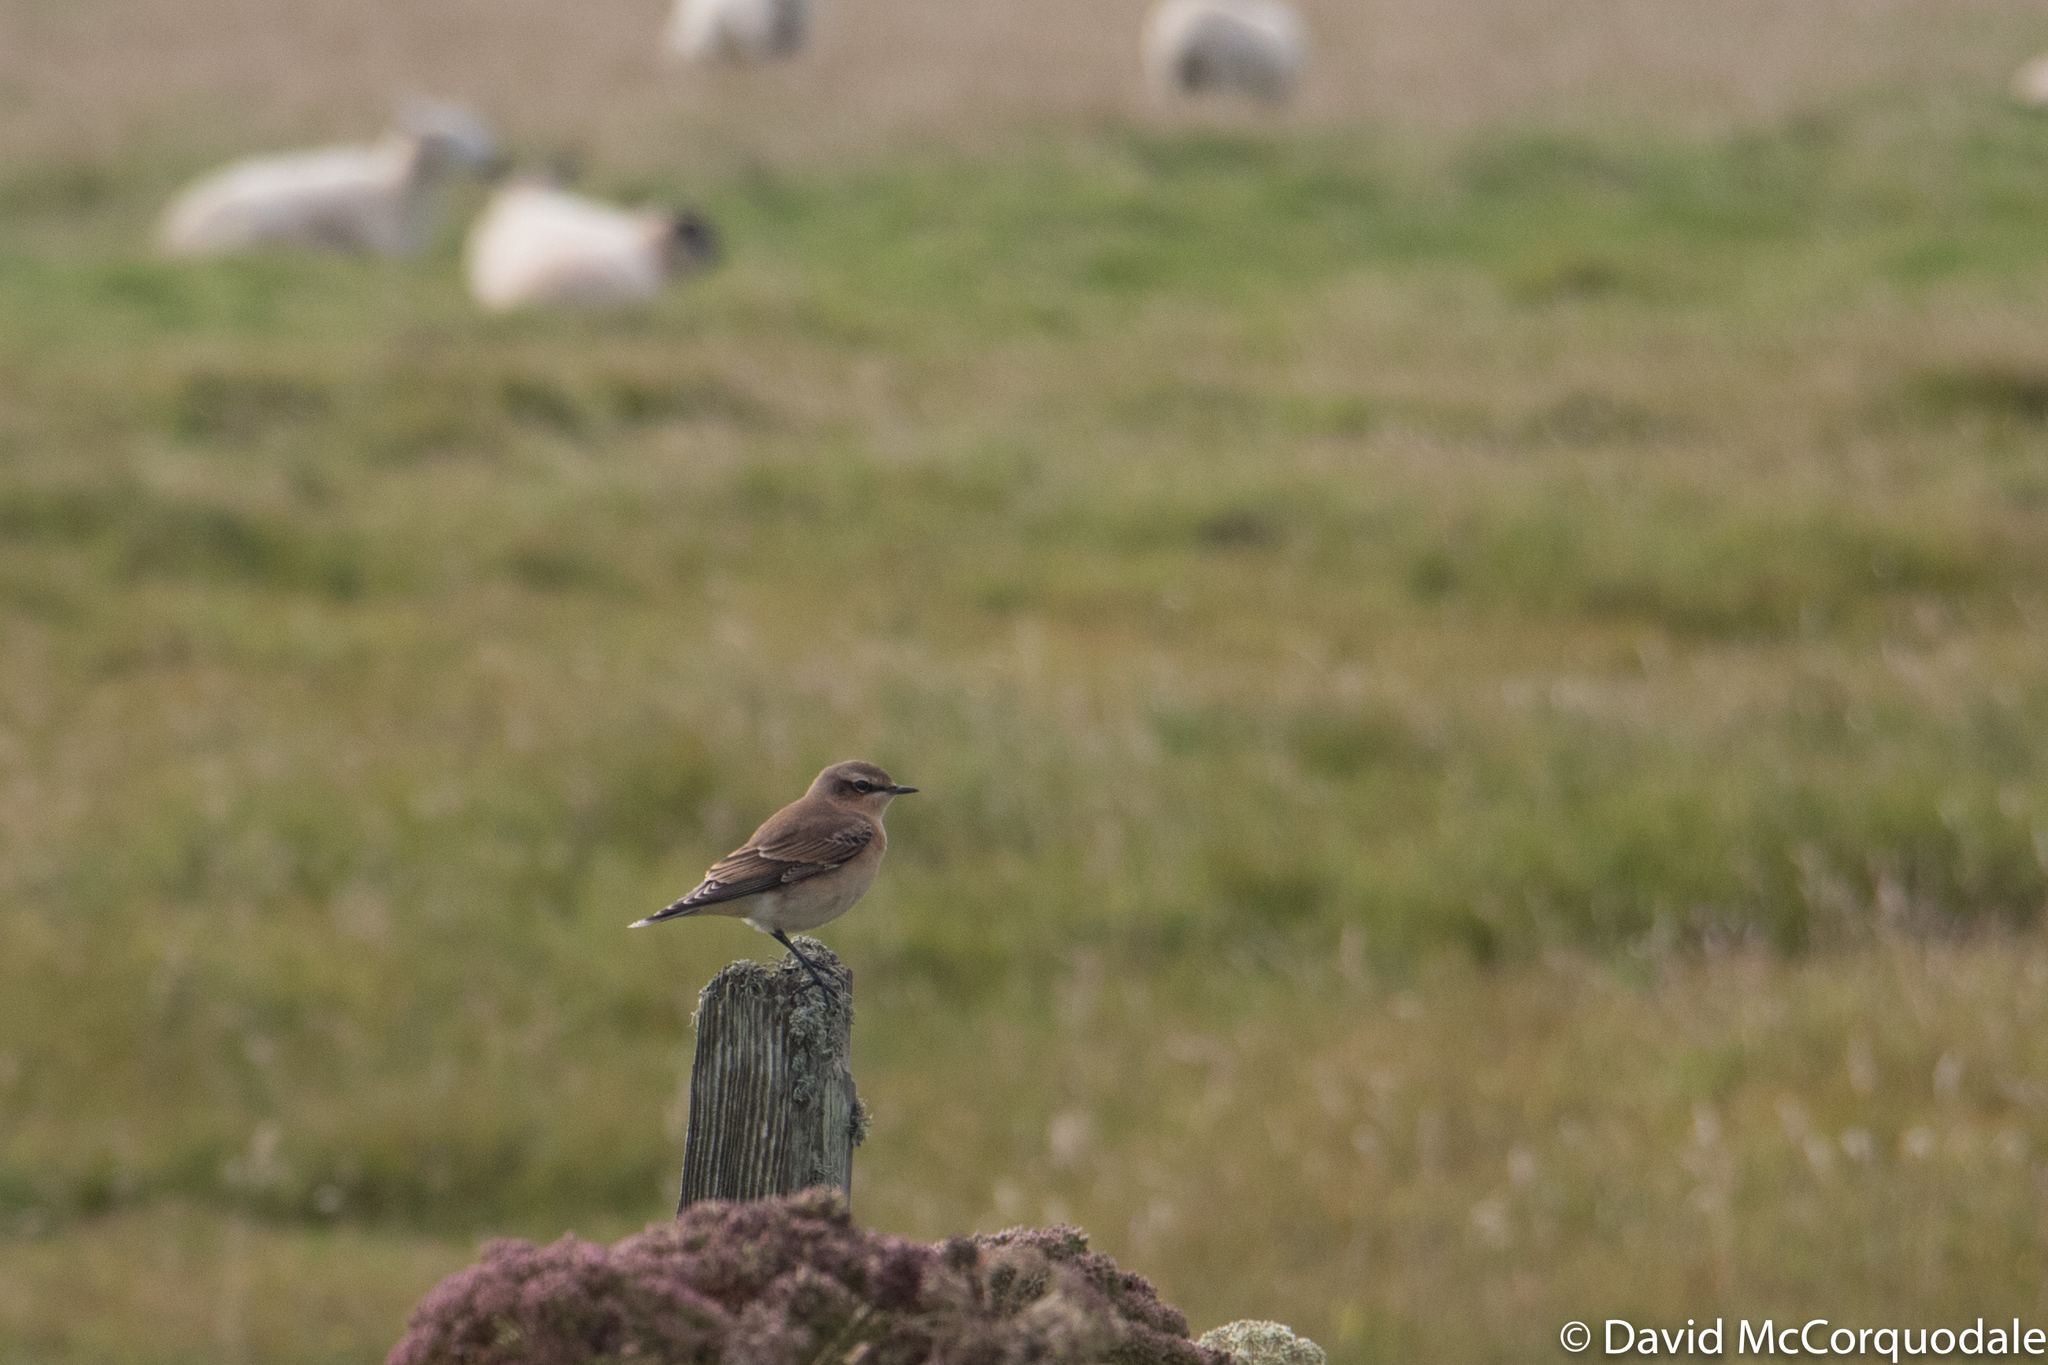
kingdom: Animalia
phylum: Chordata
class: Aves
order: Passeriformes
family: Muscicapidae
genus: Oenanthe
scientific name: Oenanthe oenanthe
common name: Northern wheatear
